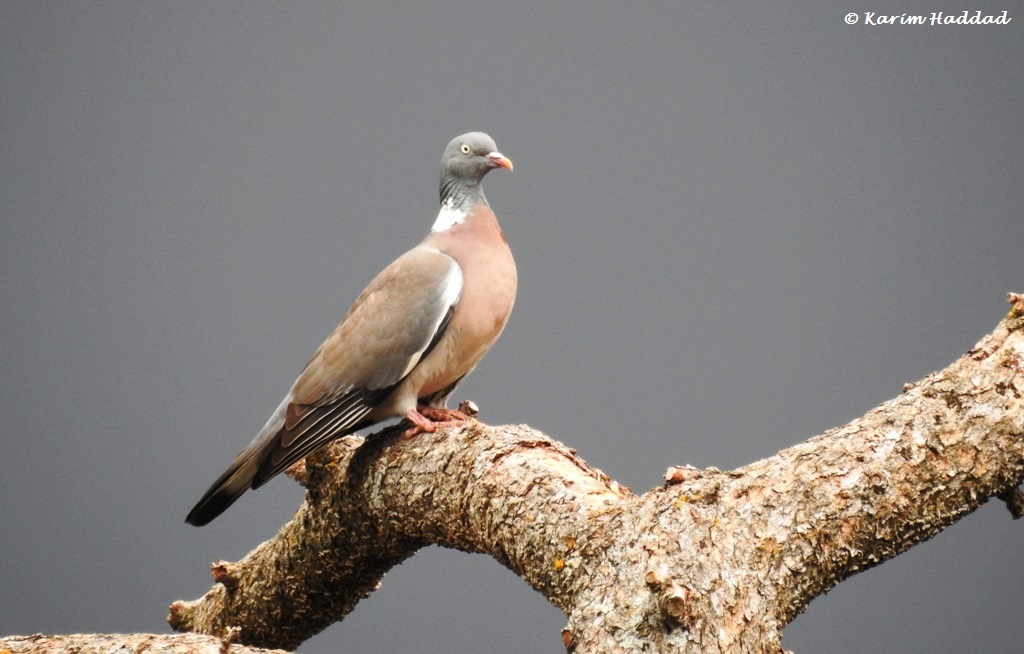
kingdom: Animalia
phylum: Chordata
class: Aves
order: Columbiformes
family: Columbidae
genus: Columba
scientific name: Columba palumbus
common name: Common wood pigeon
